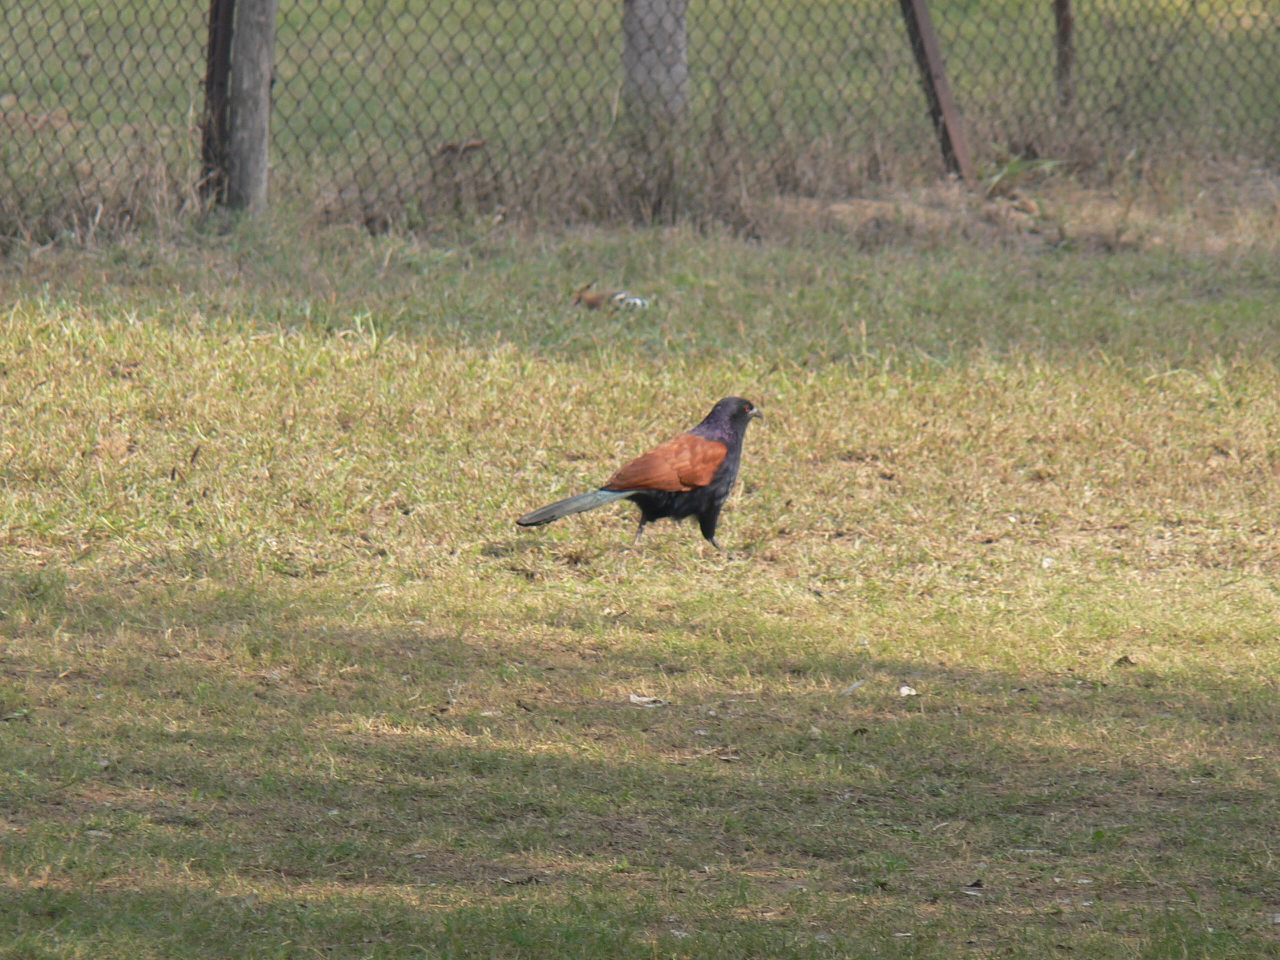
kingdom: Animalia
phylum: Chordata
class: Aves
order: Cuculiformes
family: Cuculidae
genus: Centropus
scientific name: Centropus sinensis
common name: Greater coucal
